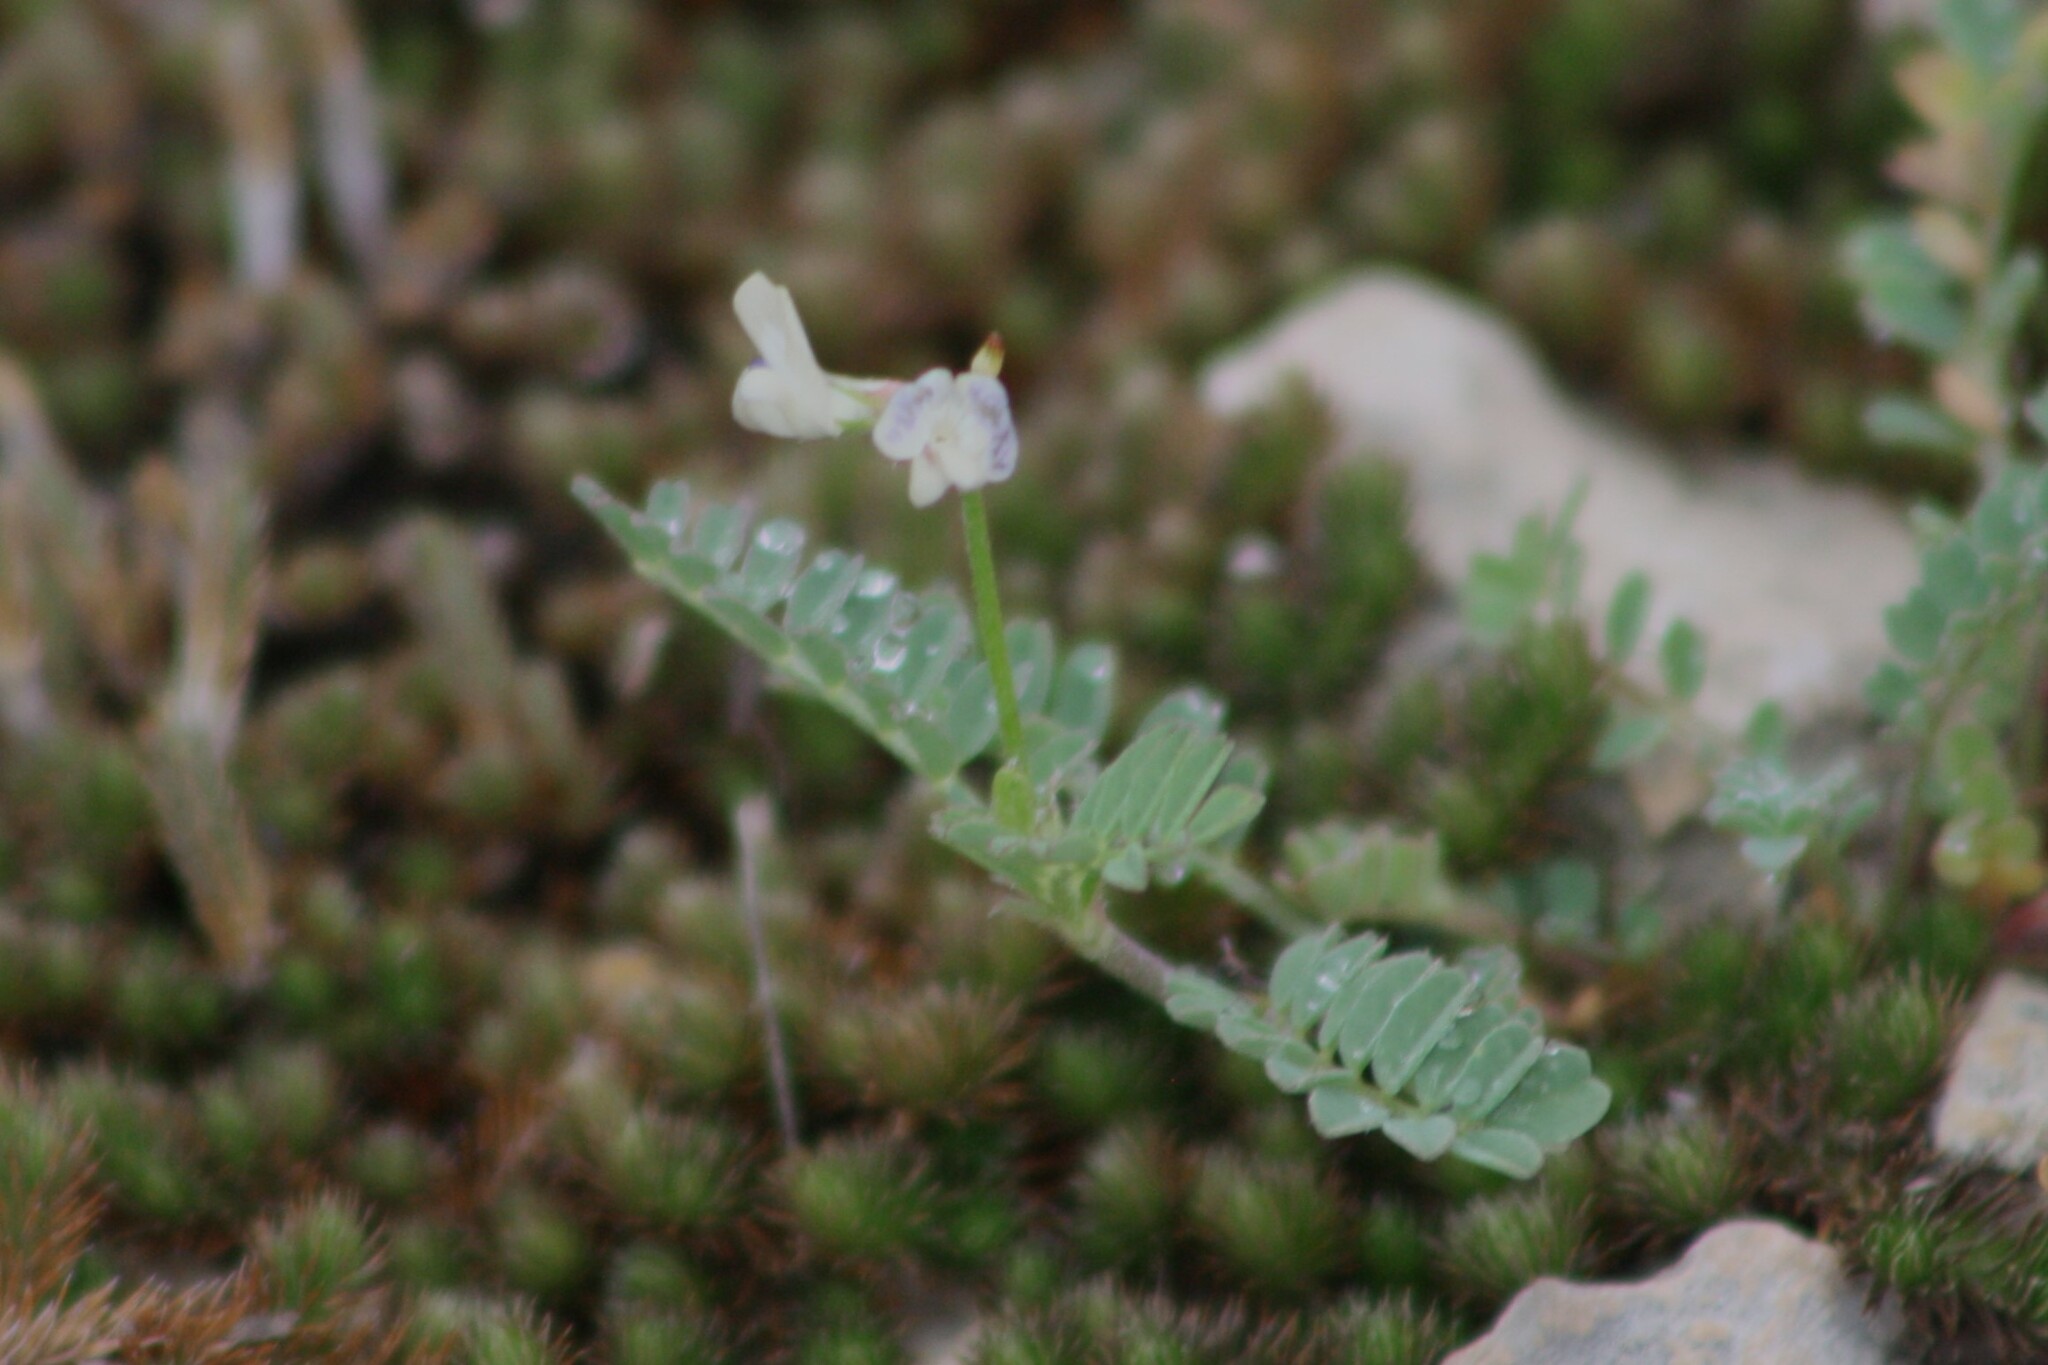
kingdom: Plantae
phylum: Tracheophyta
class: Magnoliopsida
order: Fabales
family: Fabaceae
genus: Astragalus
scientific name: Astragalus nuttallianus
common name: Smallflowered milkvetch
